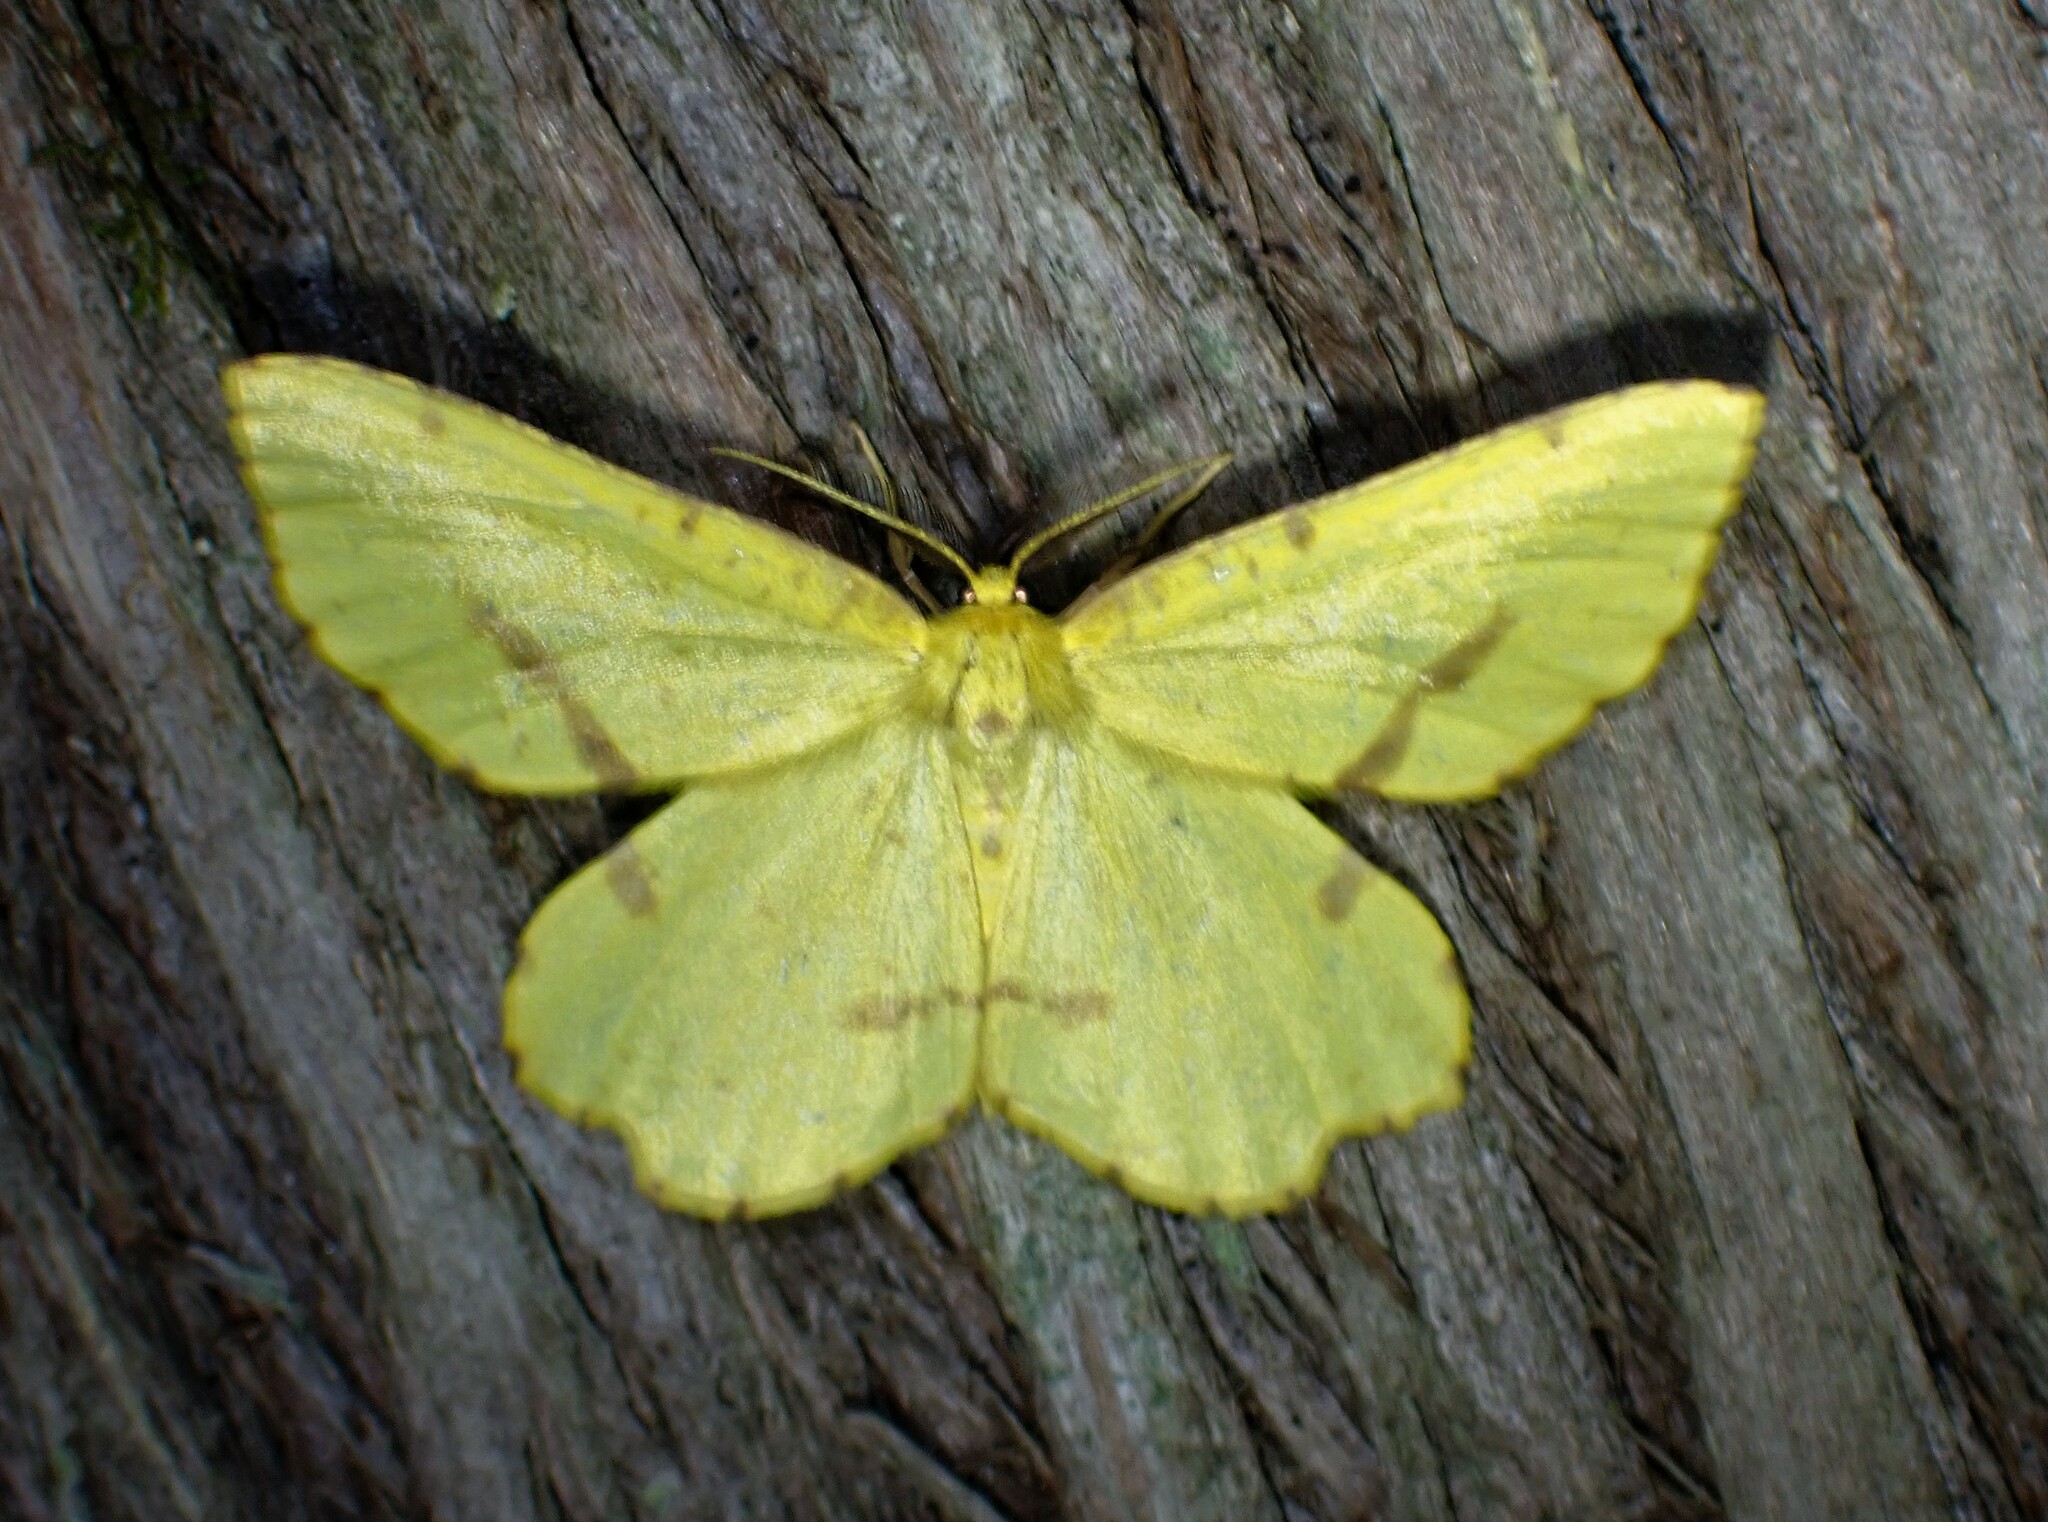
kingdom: Animalia
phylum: Arthropoda
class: Insecta
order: Lepidoptera
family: Geometridae
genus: Xanthotype
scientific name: Xanthotype
